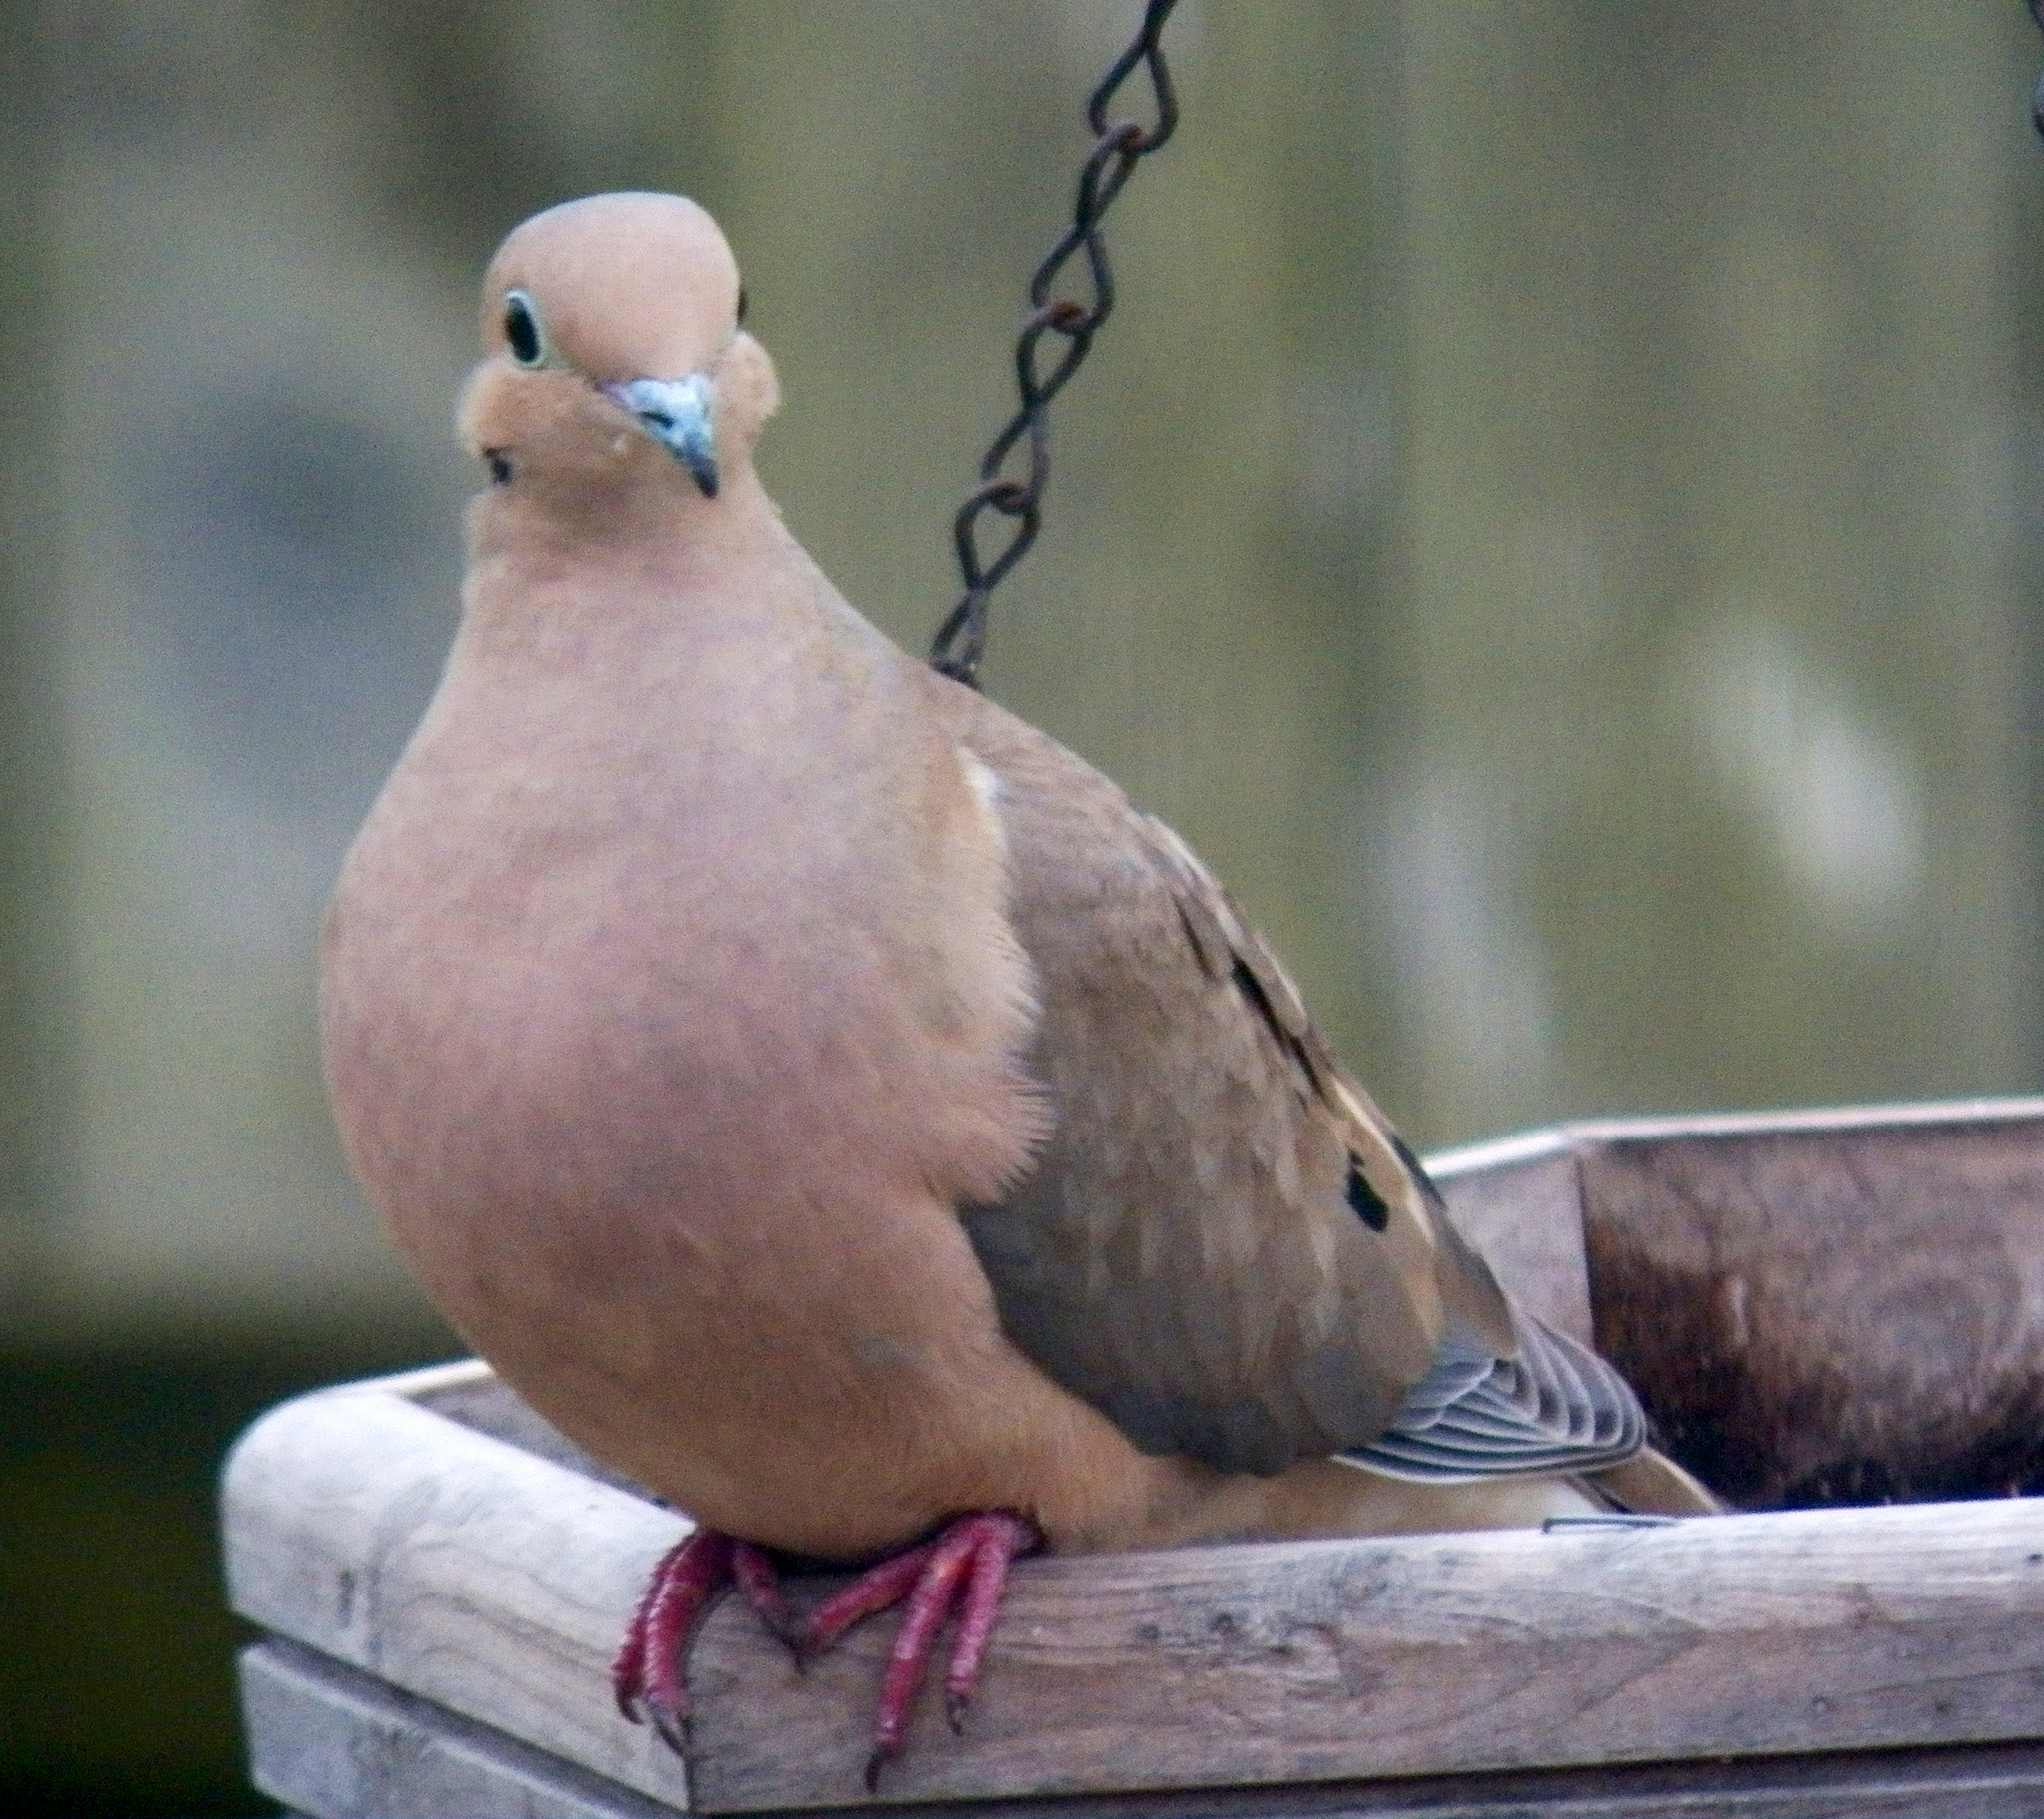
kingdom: Animalia
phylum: Chordata
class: Aves
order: Columbiformes
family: Columbidae
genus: Zenaida
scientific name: Zenaida macroura
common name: Mourning dove
